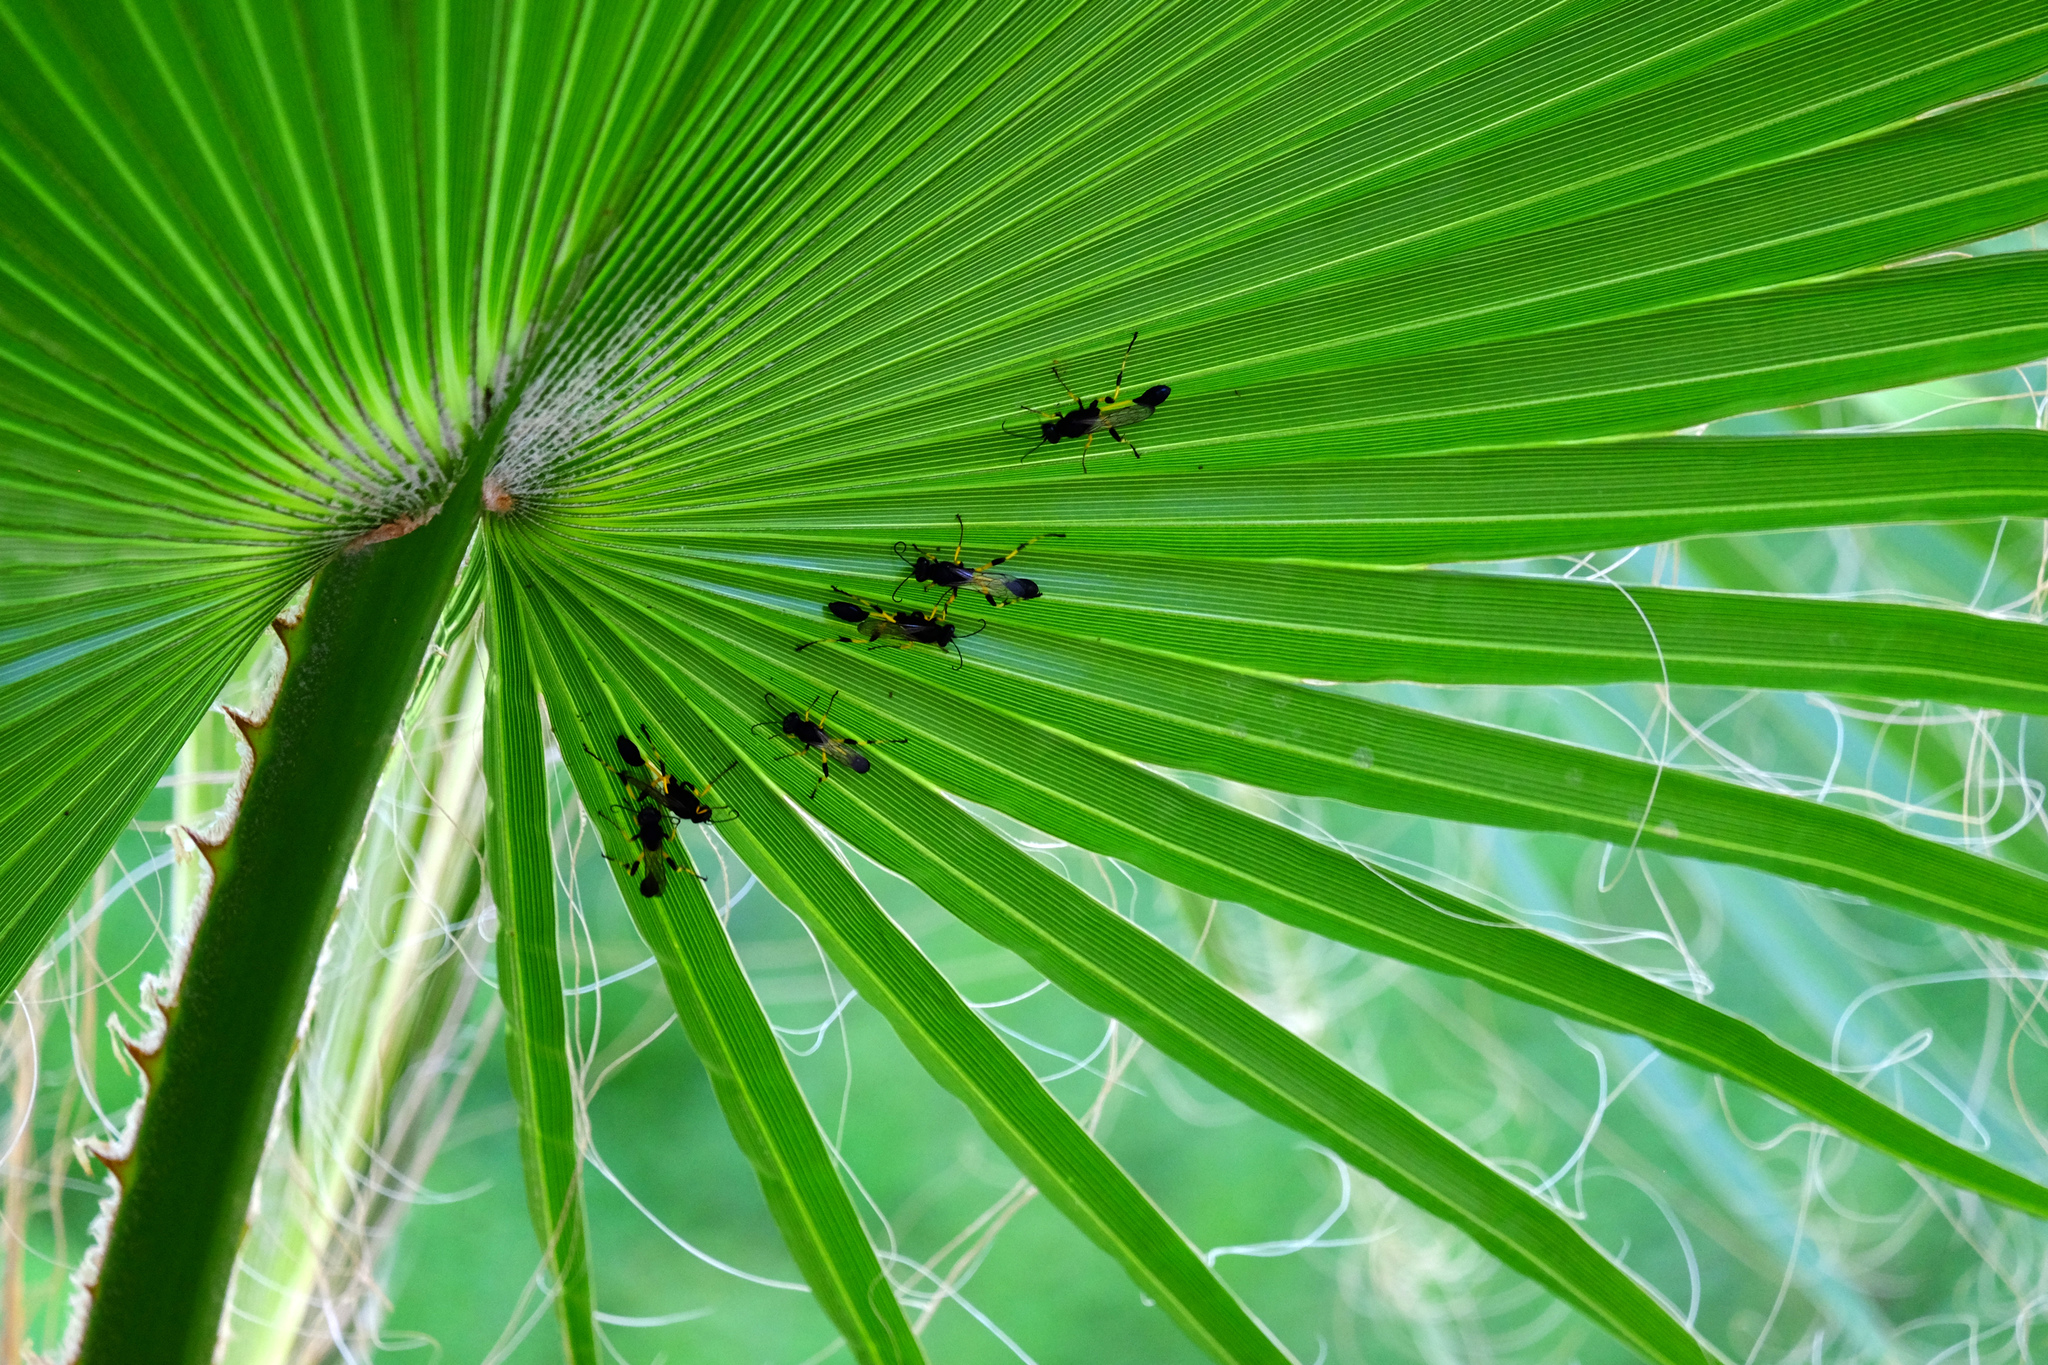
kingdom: Animalia
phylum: Arthropoda
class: Insecta
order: Hymenoptera
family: Sphecidae
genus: Sceliphron
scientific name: Sceliphron spirifex
